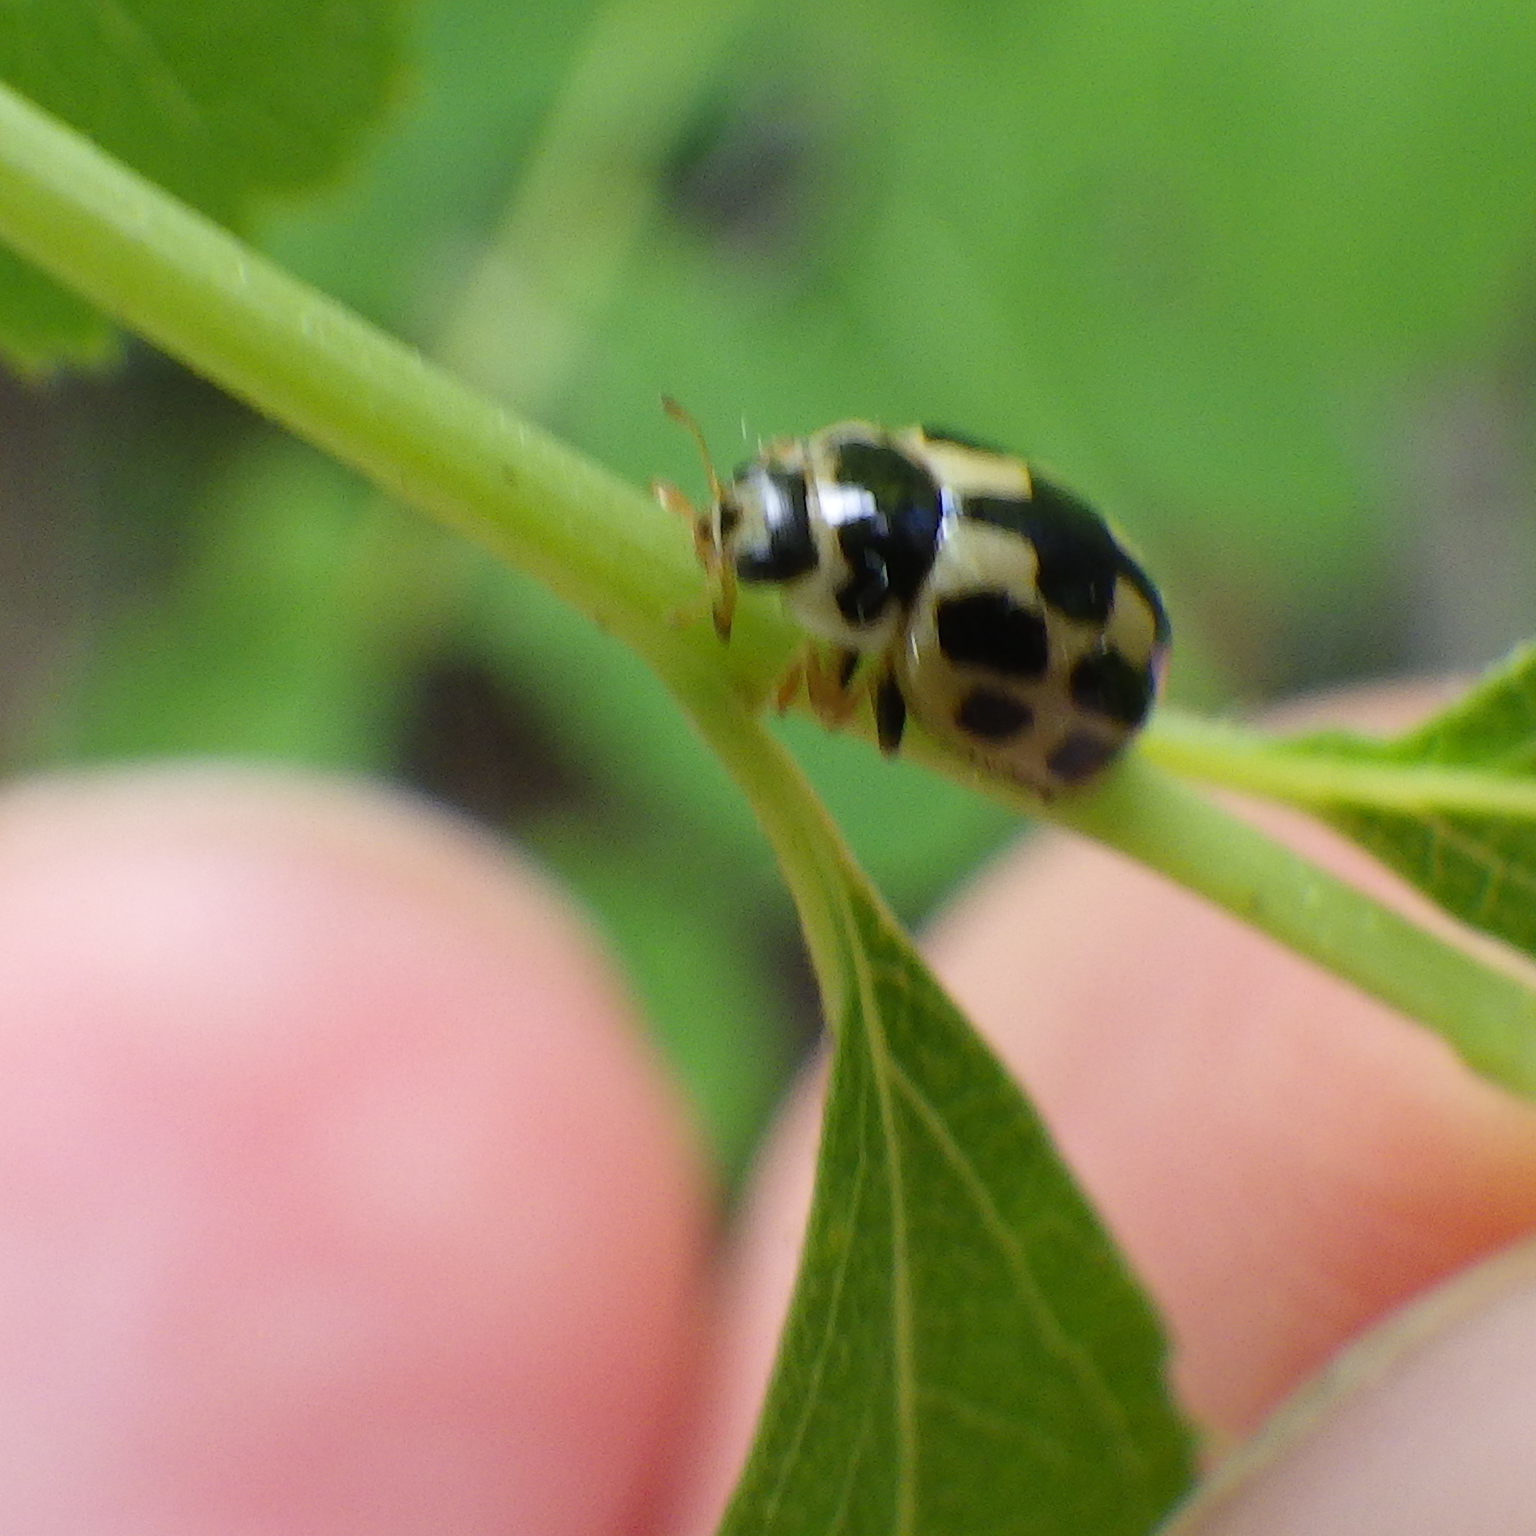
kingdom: Animalia
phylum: Arthropoda
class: Insecta
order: Coleoptera
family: Coccinellidae
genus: Propylaea
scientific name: Propylaea quatuordecimpunctata
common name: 14-spotted ladybird beetle
